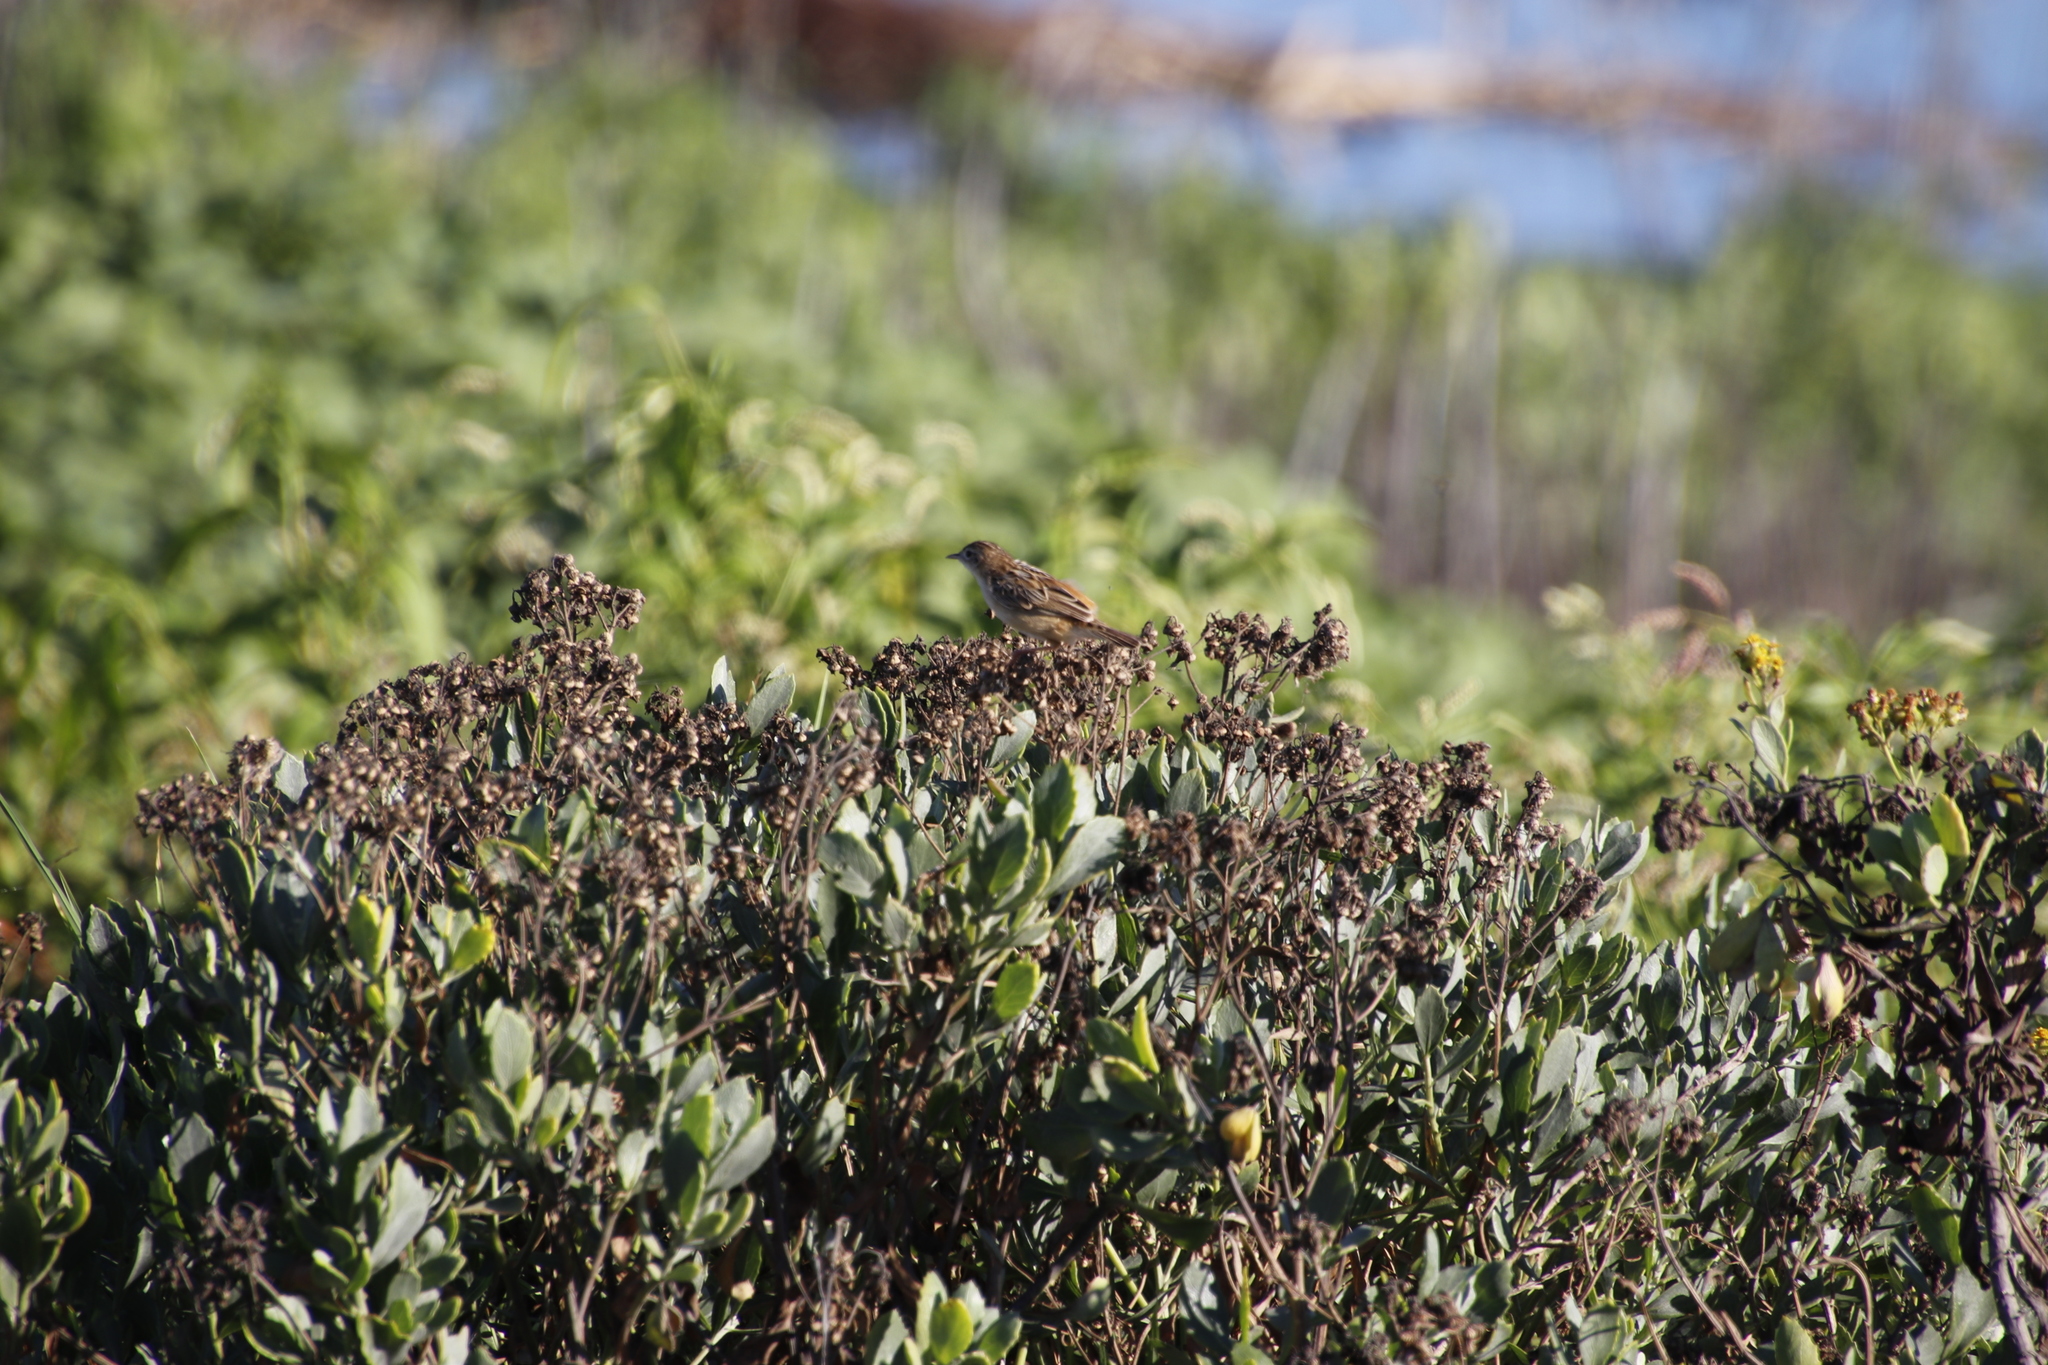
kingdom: Plantae
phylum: Tracheophyta
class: Magnoliopsida
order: Asterales
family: Asteraceae
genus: Senecio
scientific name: Senecio halimifolius
